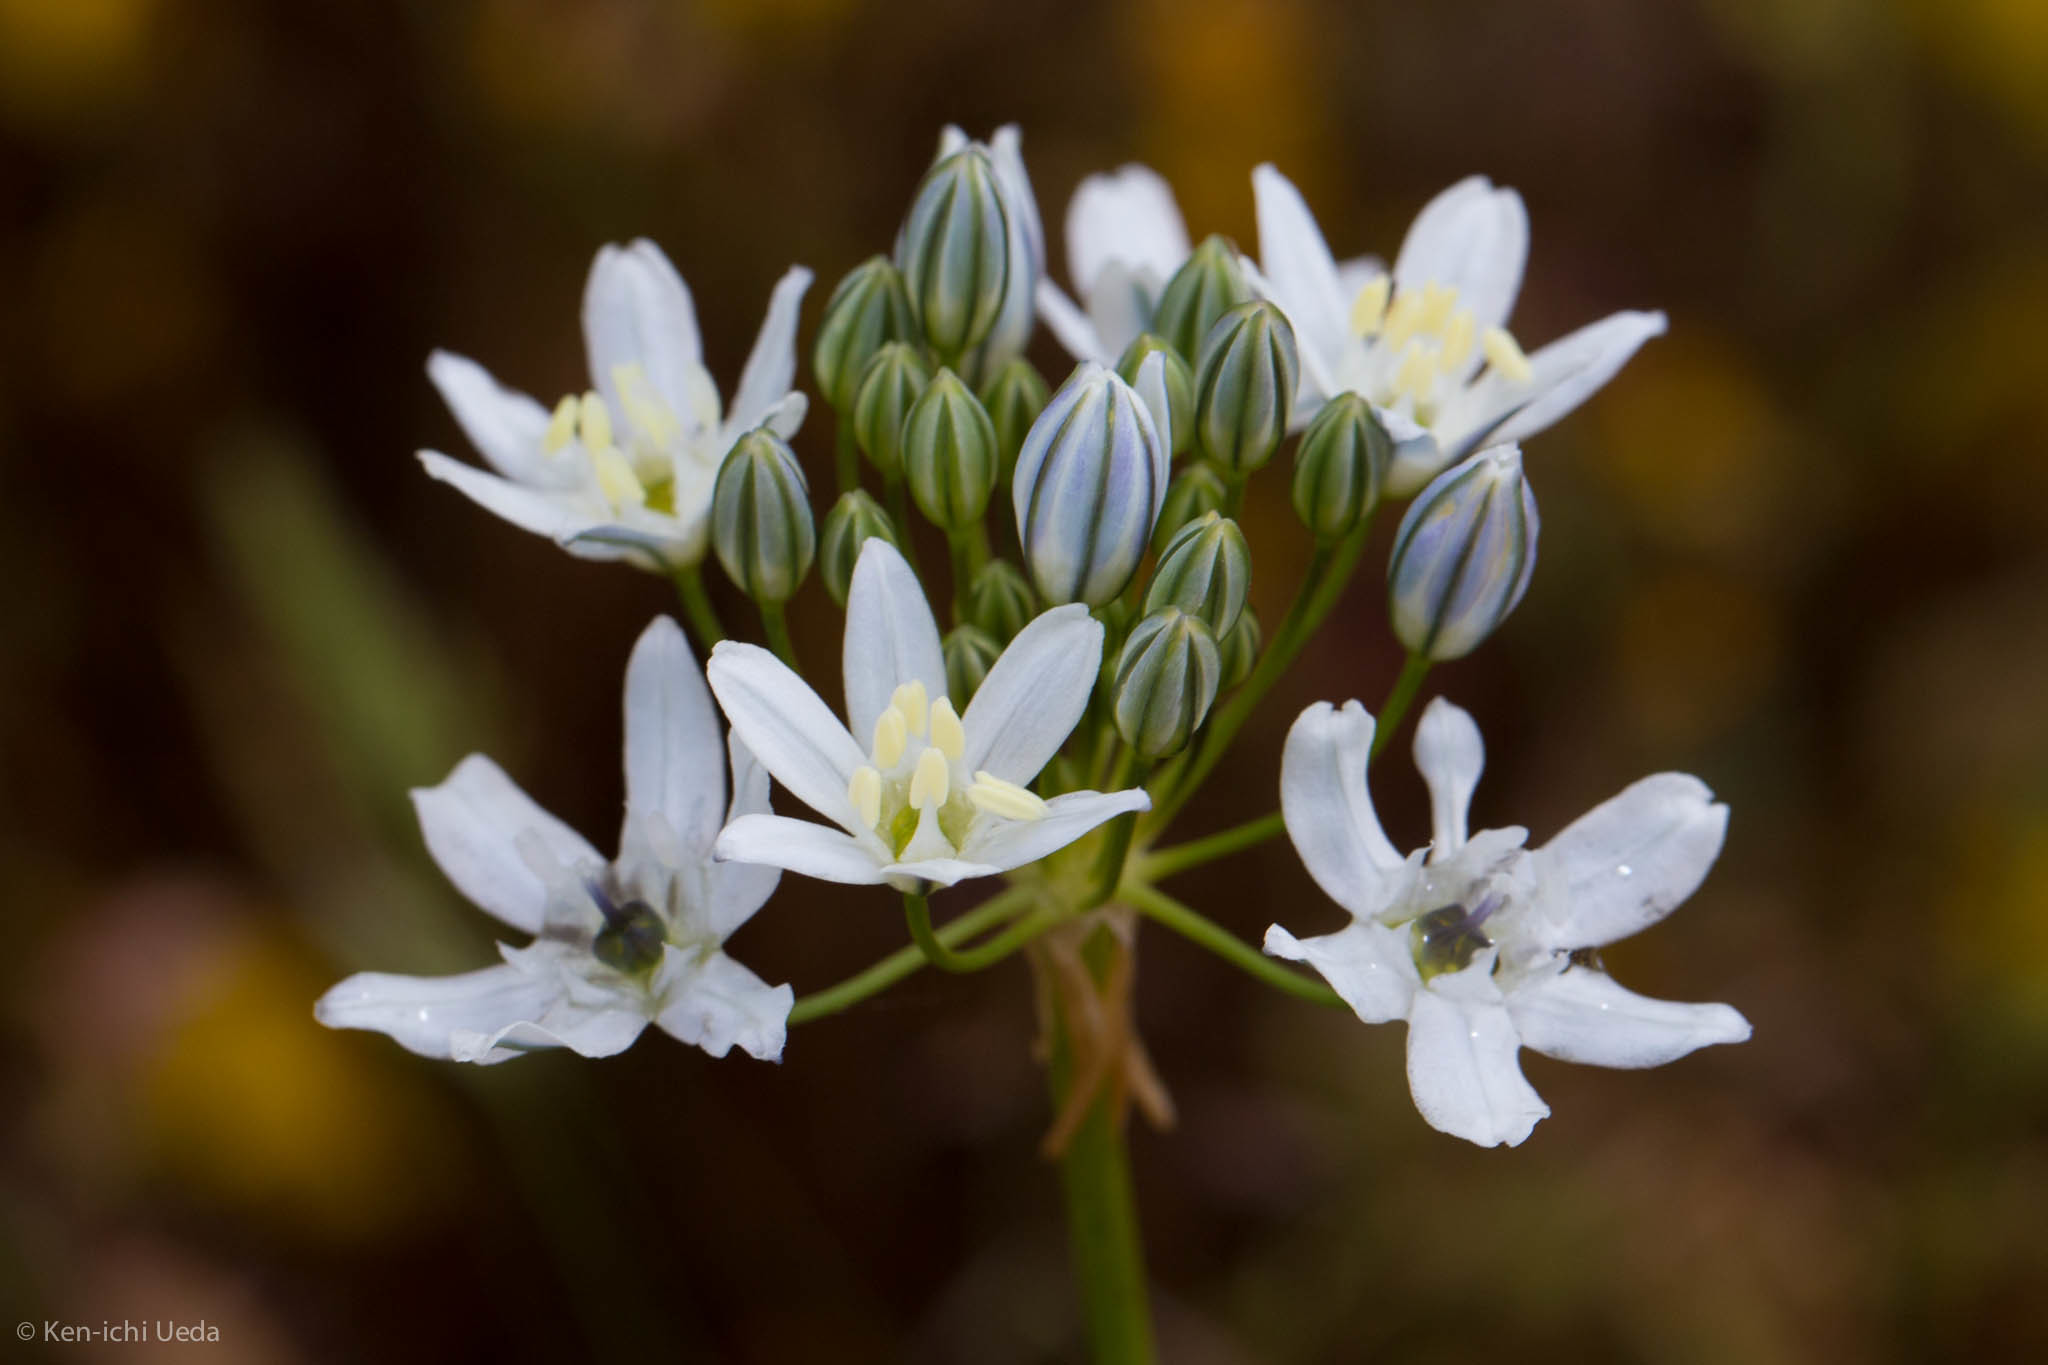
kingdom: Plantae
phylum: Tracheophyta
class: Liliopsida
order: Asparagales
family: Asparagaceae
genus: Triteleia
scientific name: Triteleia hyacinthina
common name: White brodiaea
